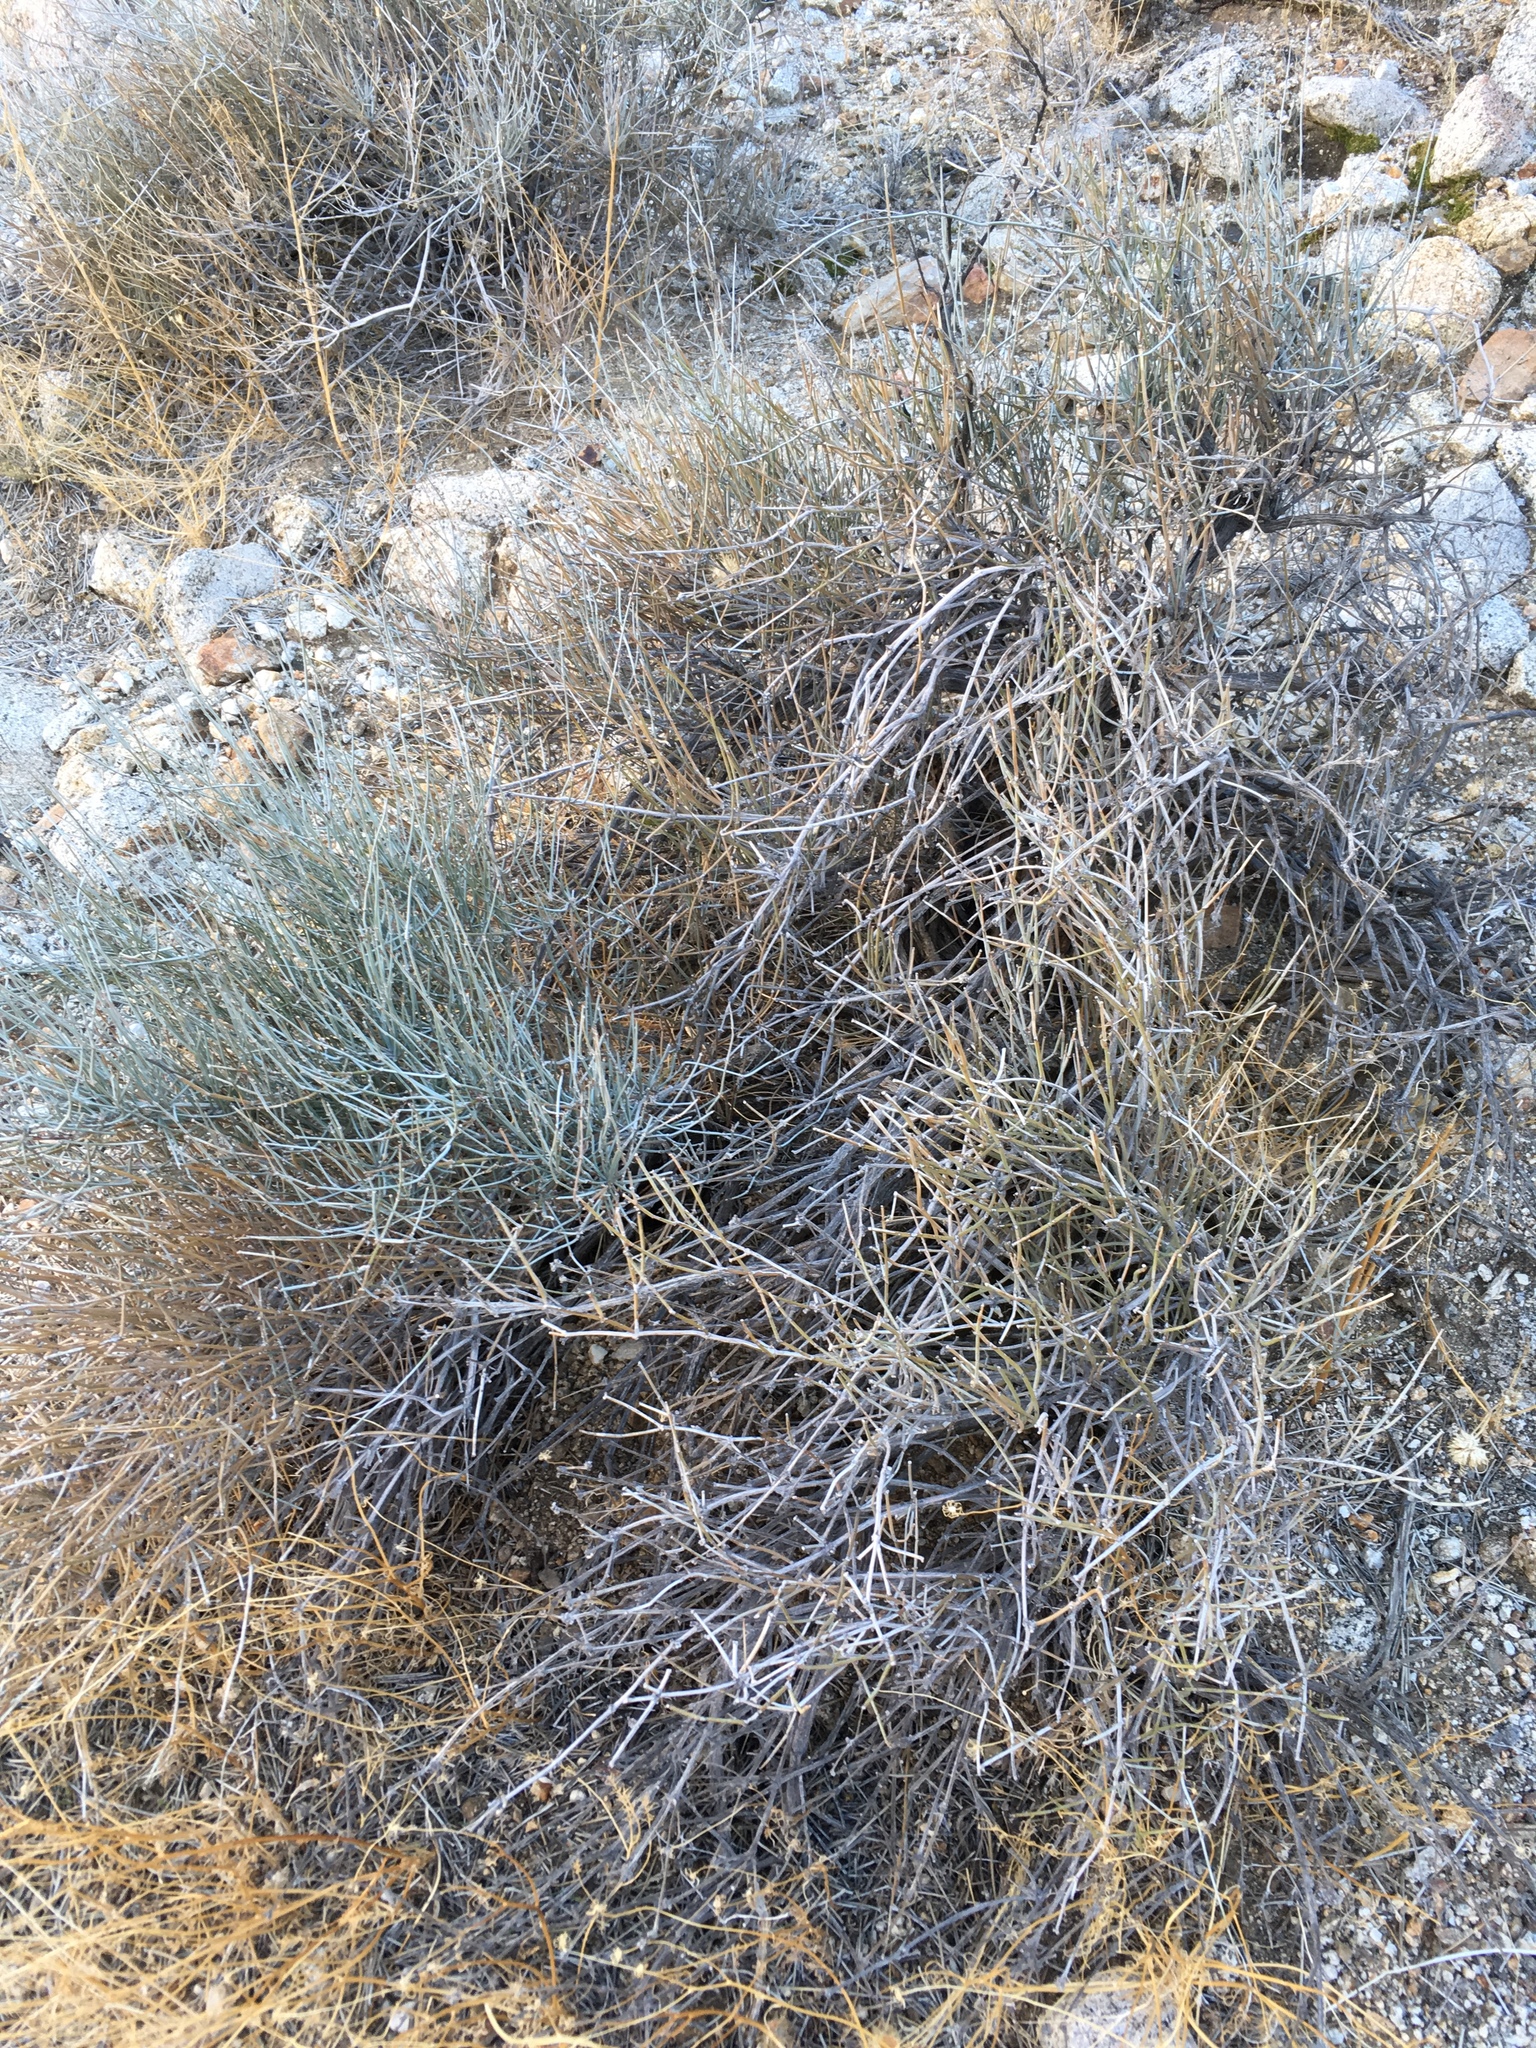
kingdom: Plantae
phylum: Tracheophyta
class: Gnetopsida
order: Ephedrales
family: Ephedraceae
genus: Ephedra
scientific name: Ephedra aspera
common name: Boundary ephedra
